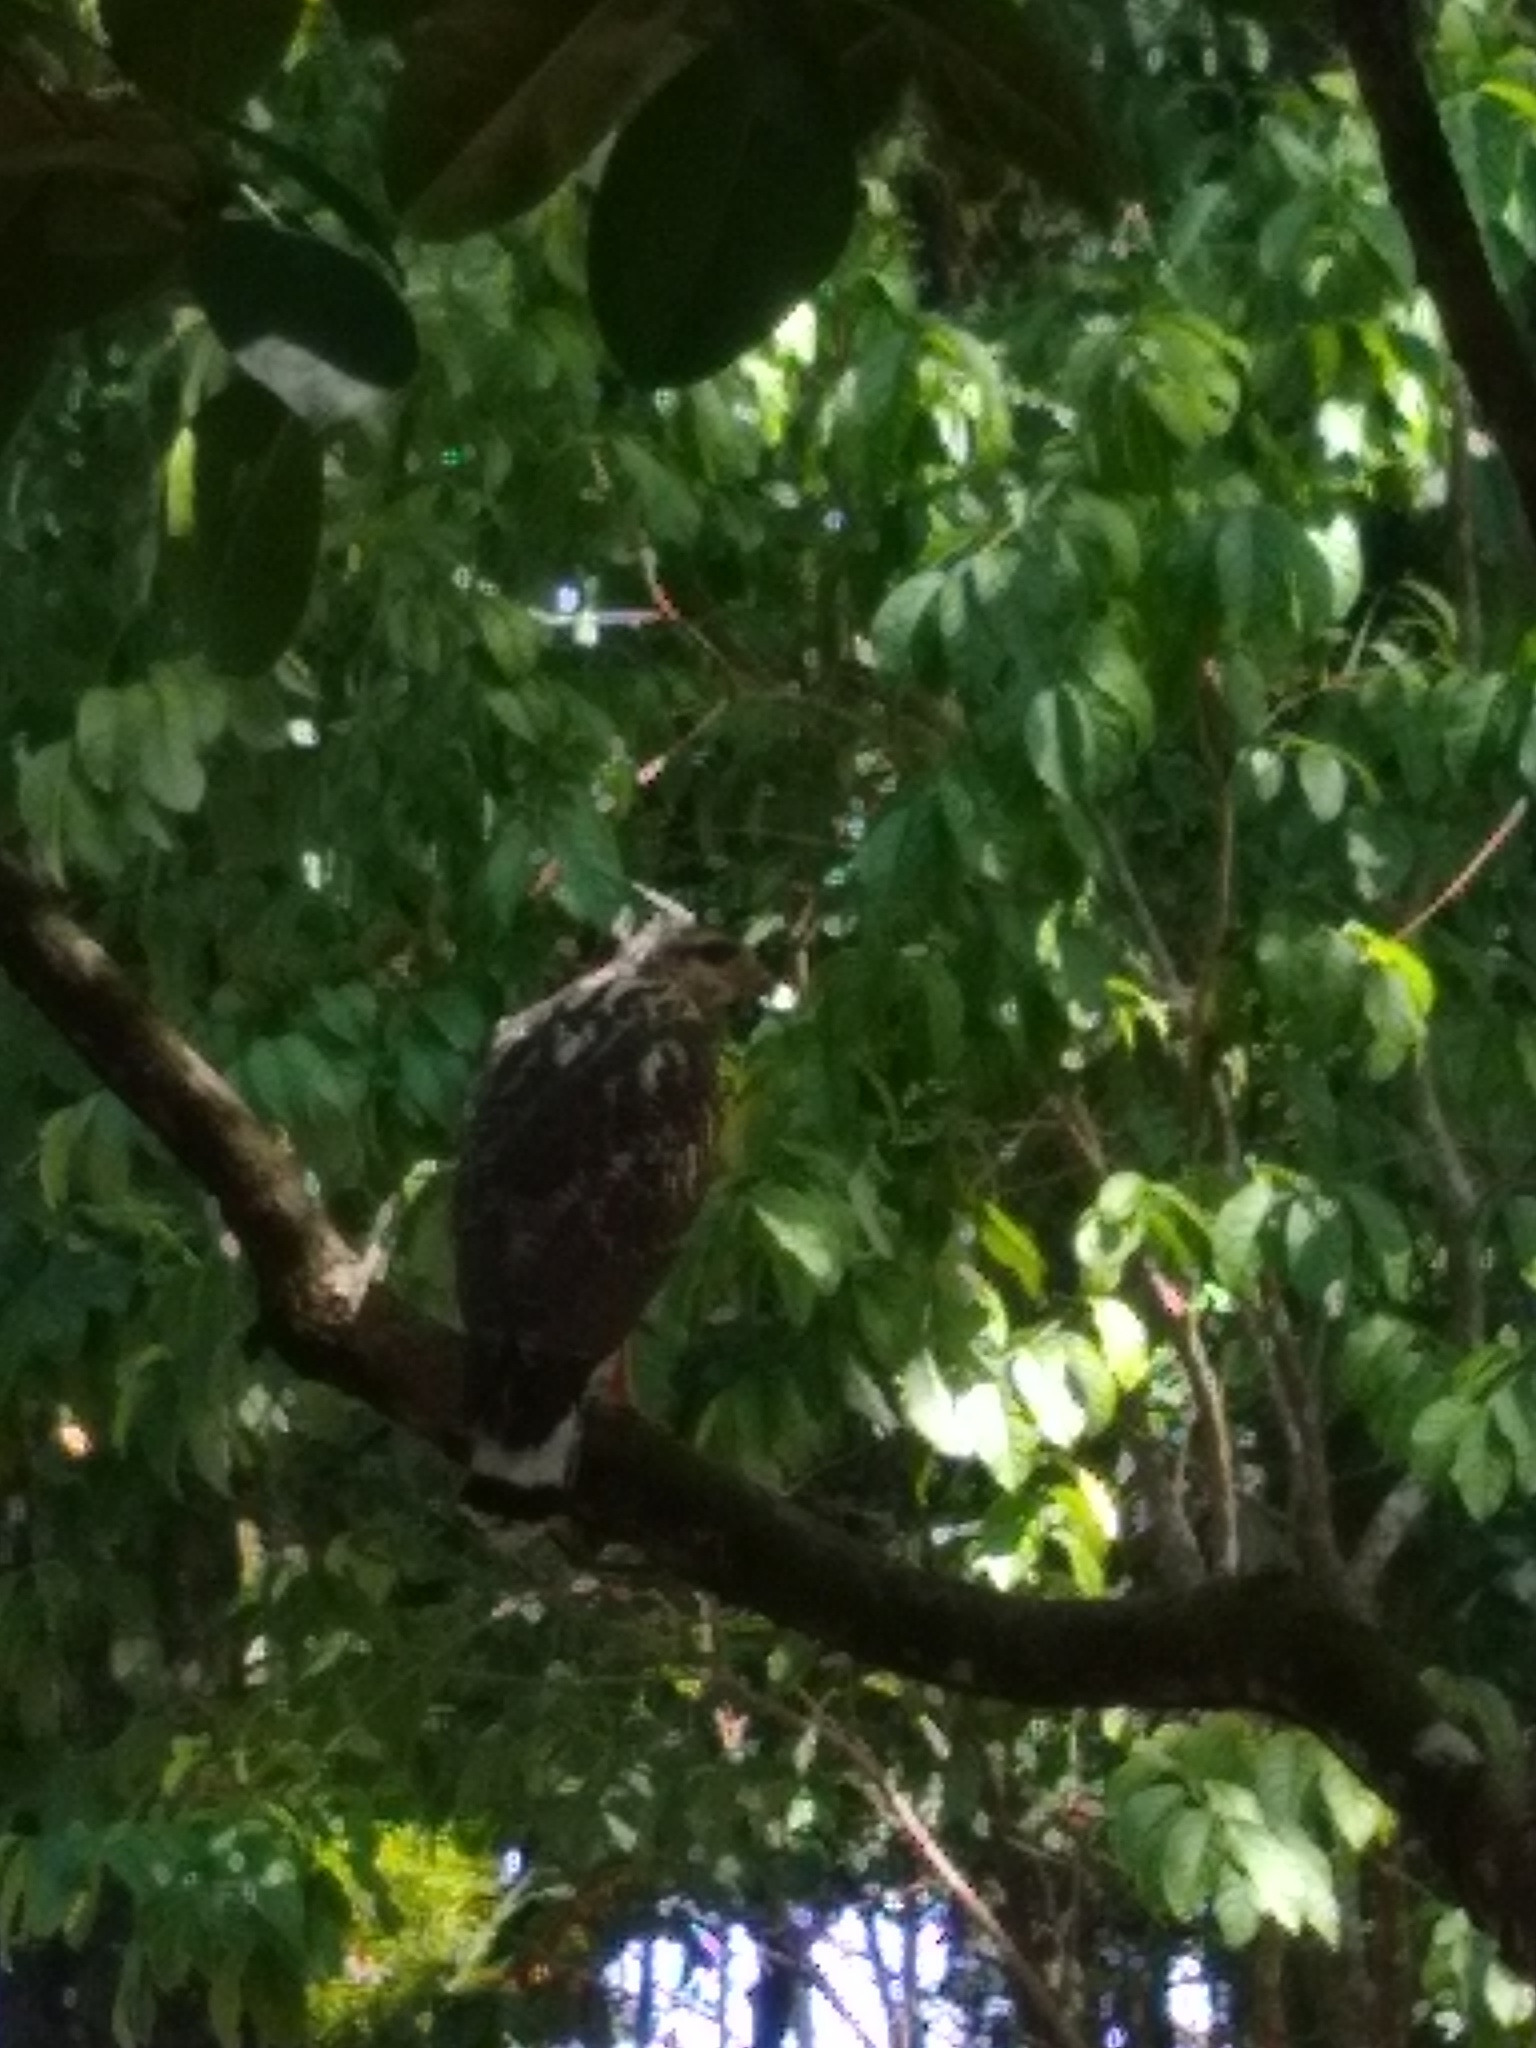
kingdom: Animalia
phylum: Chordata
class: Aves
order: Accipitriformes
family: Accipitridae
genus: Buteogallus
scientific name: Buteogallus anthracinus
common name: Common black hawk
